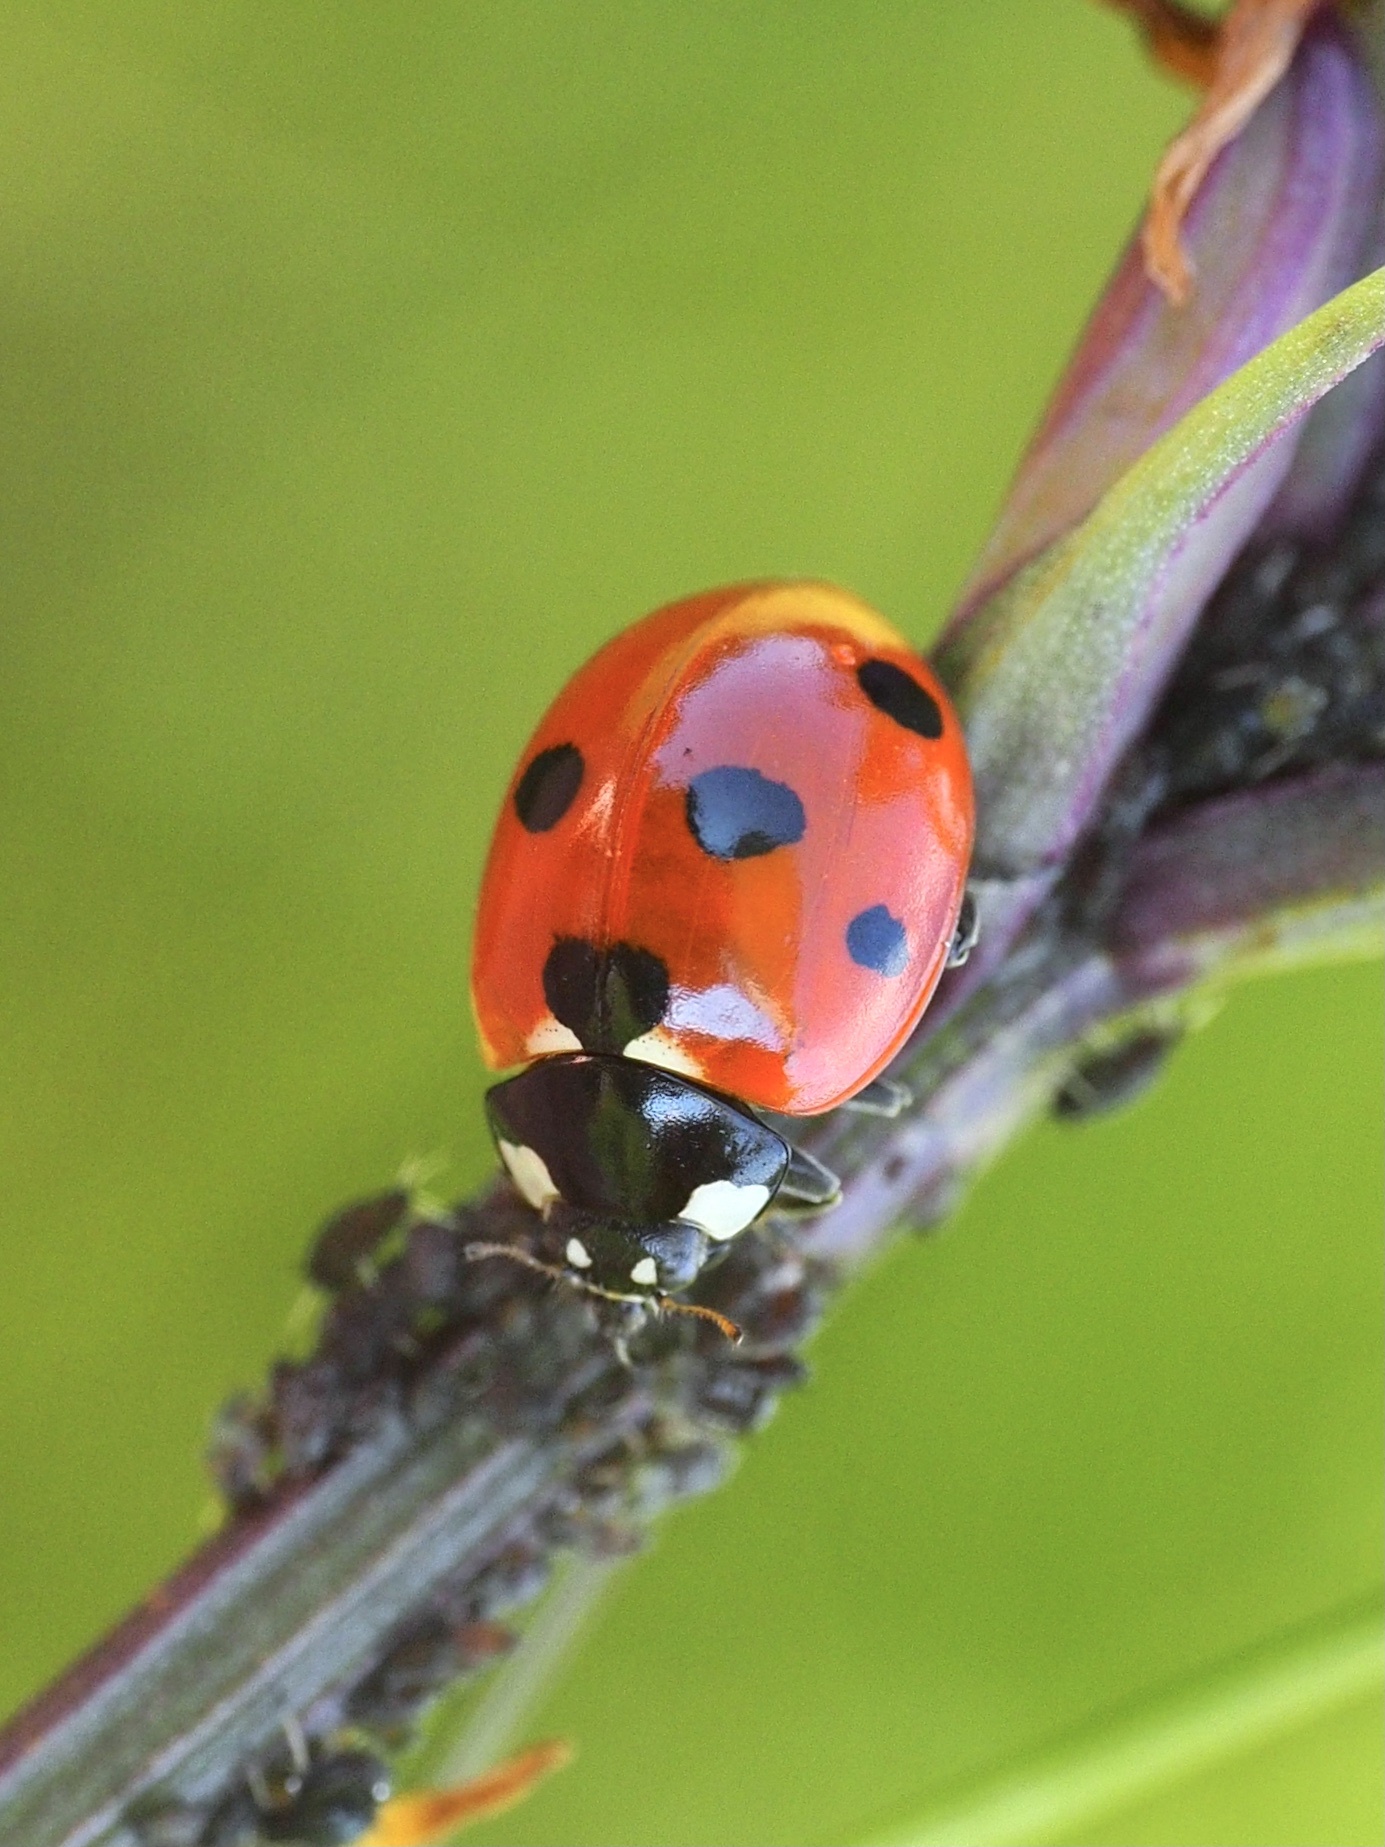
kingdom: Animalia
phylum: Arthropoda
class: Insecta
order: Coleoptera
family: Coccinellidae
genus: Coccinella
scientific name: Coccinella septempunctata
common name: Sevenspotted lady beetle
